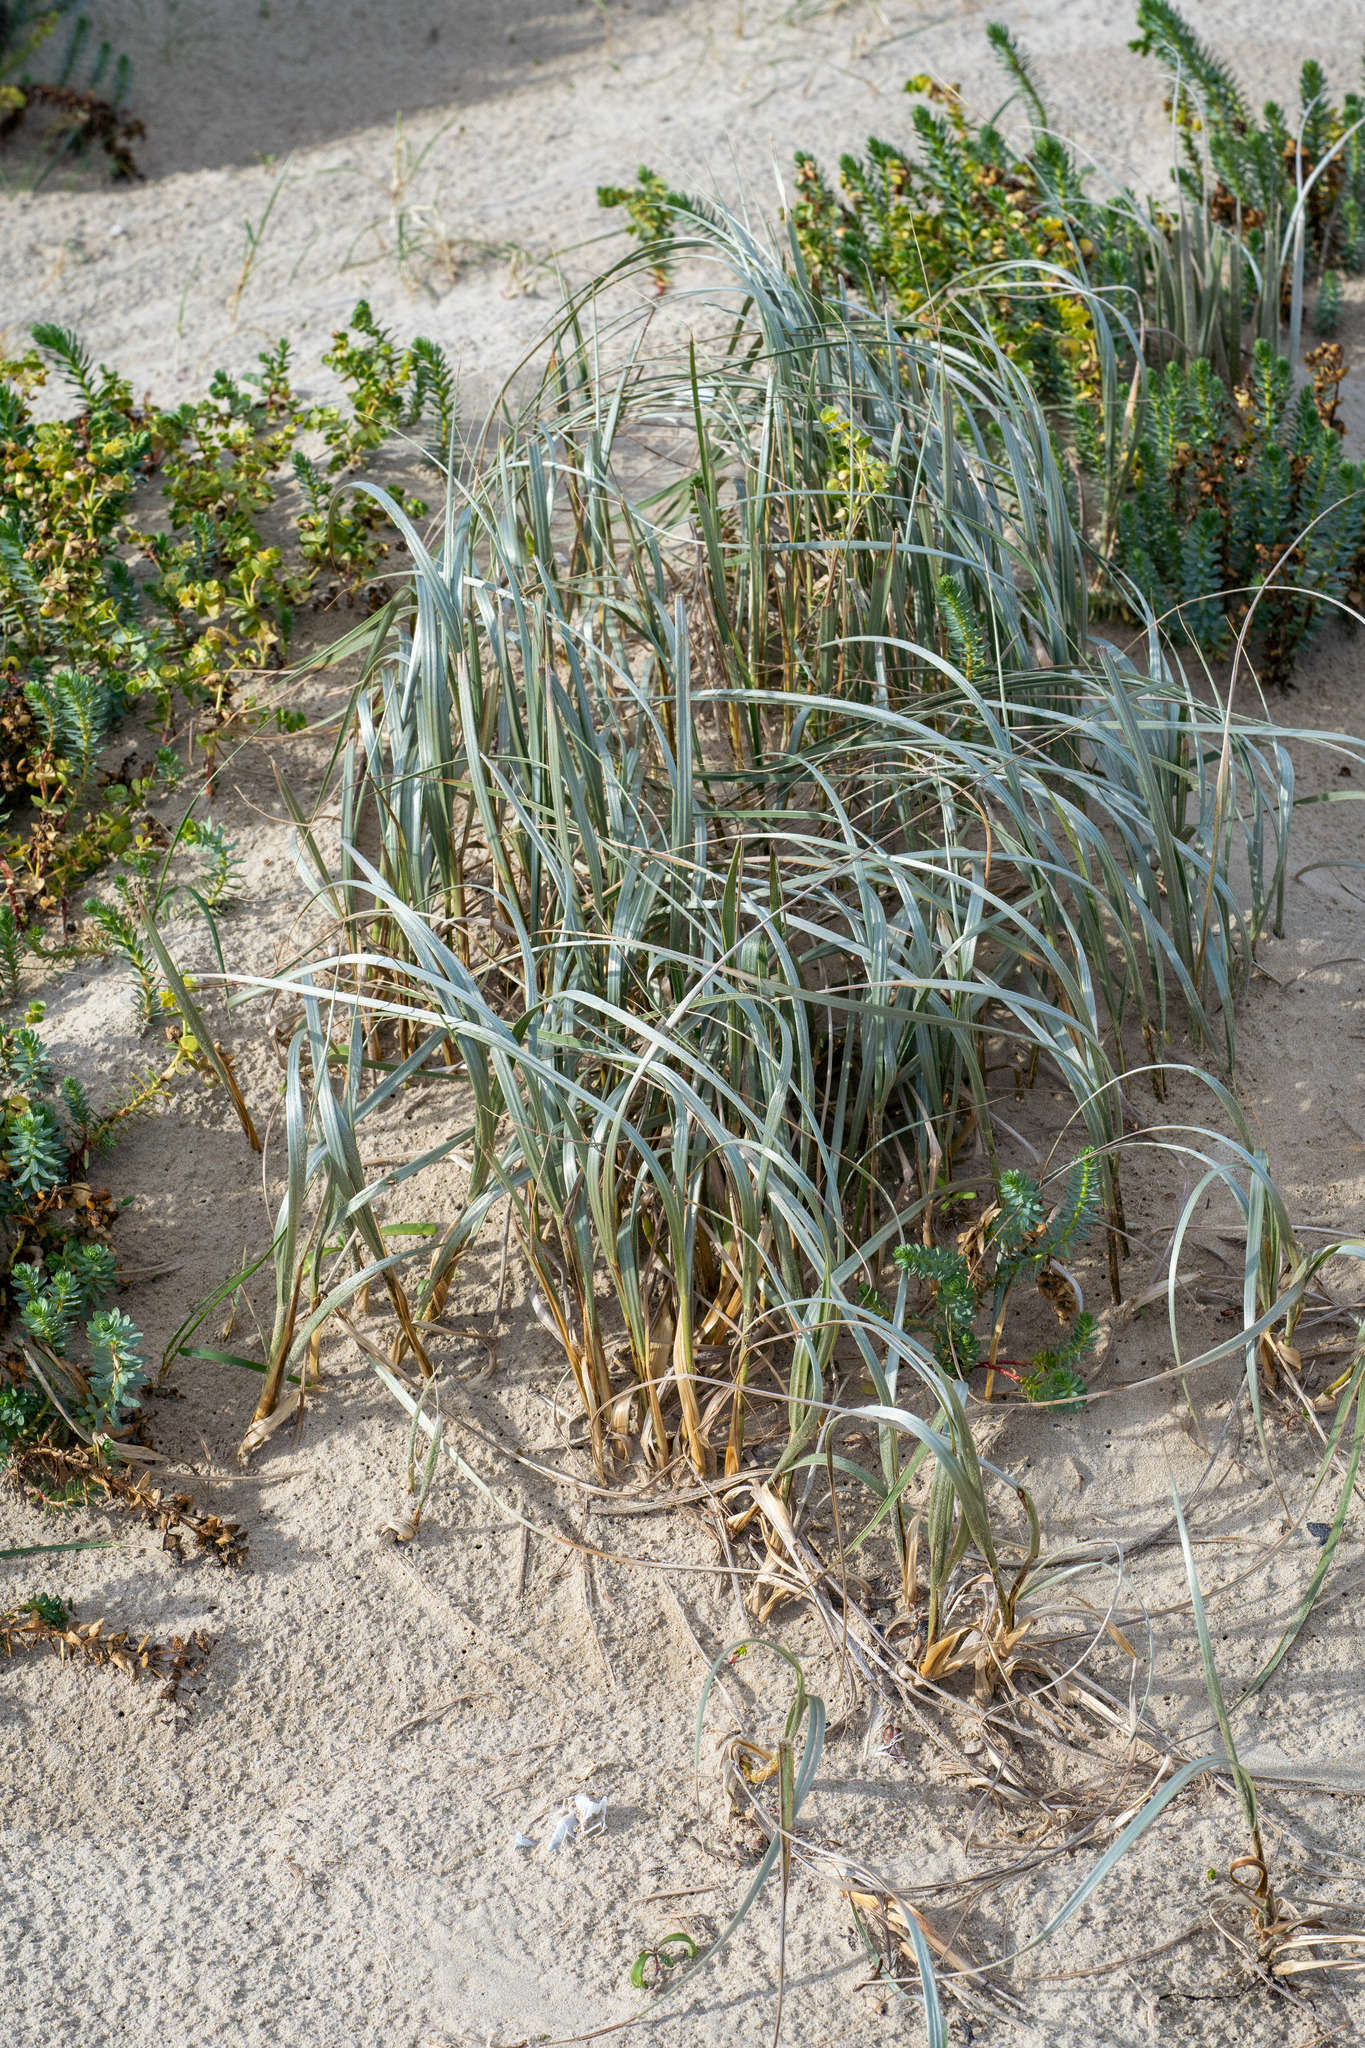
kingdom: Plantae
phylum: Tracheophyta
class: Liliopsida
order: Poales
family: Poaceae
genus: Spinifex
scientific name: Spinifex sericeus
